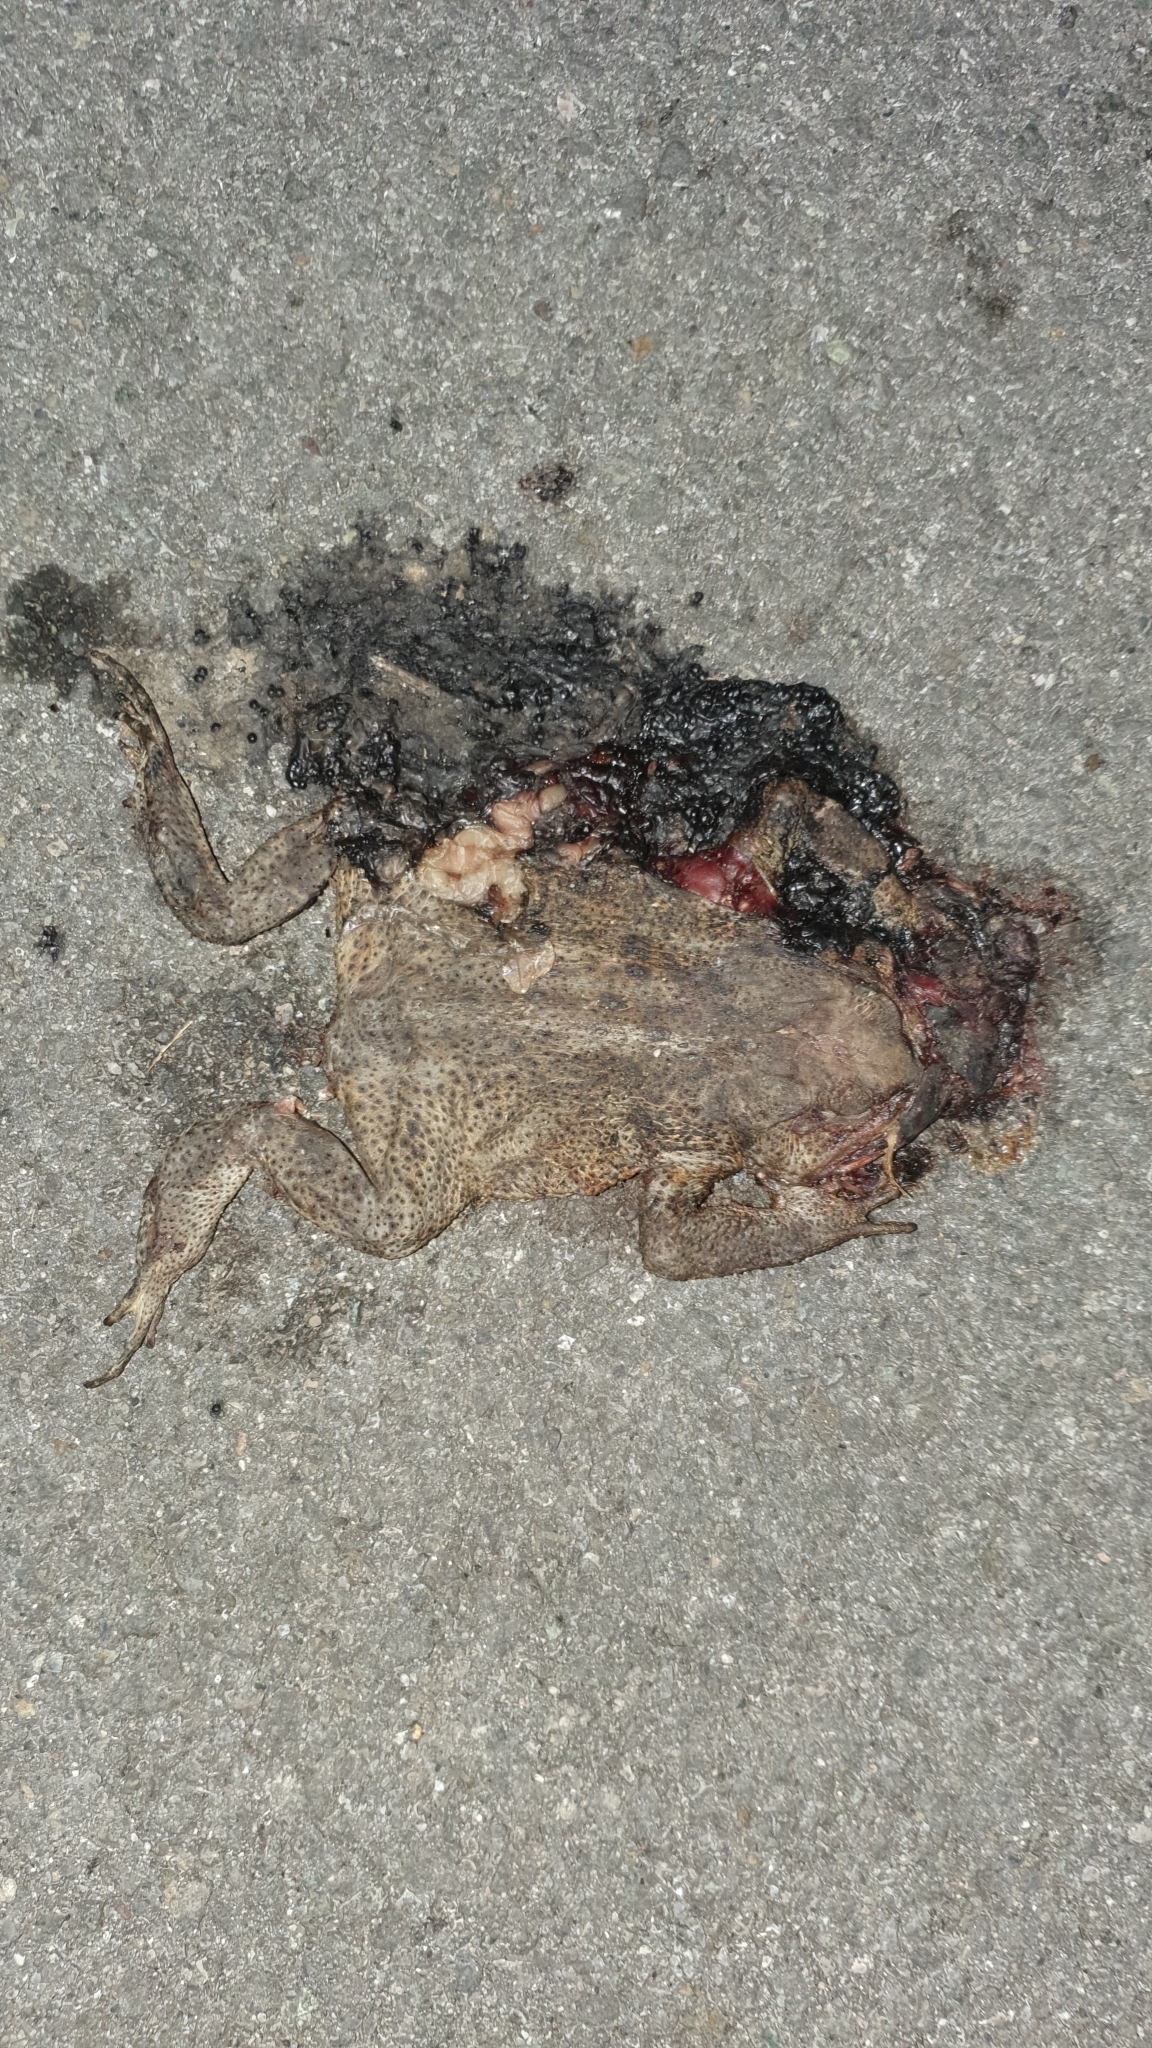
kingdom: Animalia
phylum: Chordata
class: Amphibia
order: Anura
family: Bufonidae
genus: Bufo
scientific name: Bufo bufo
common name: Common toad
